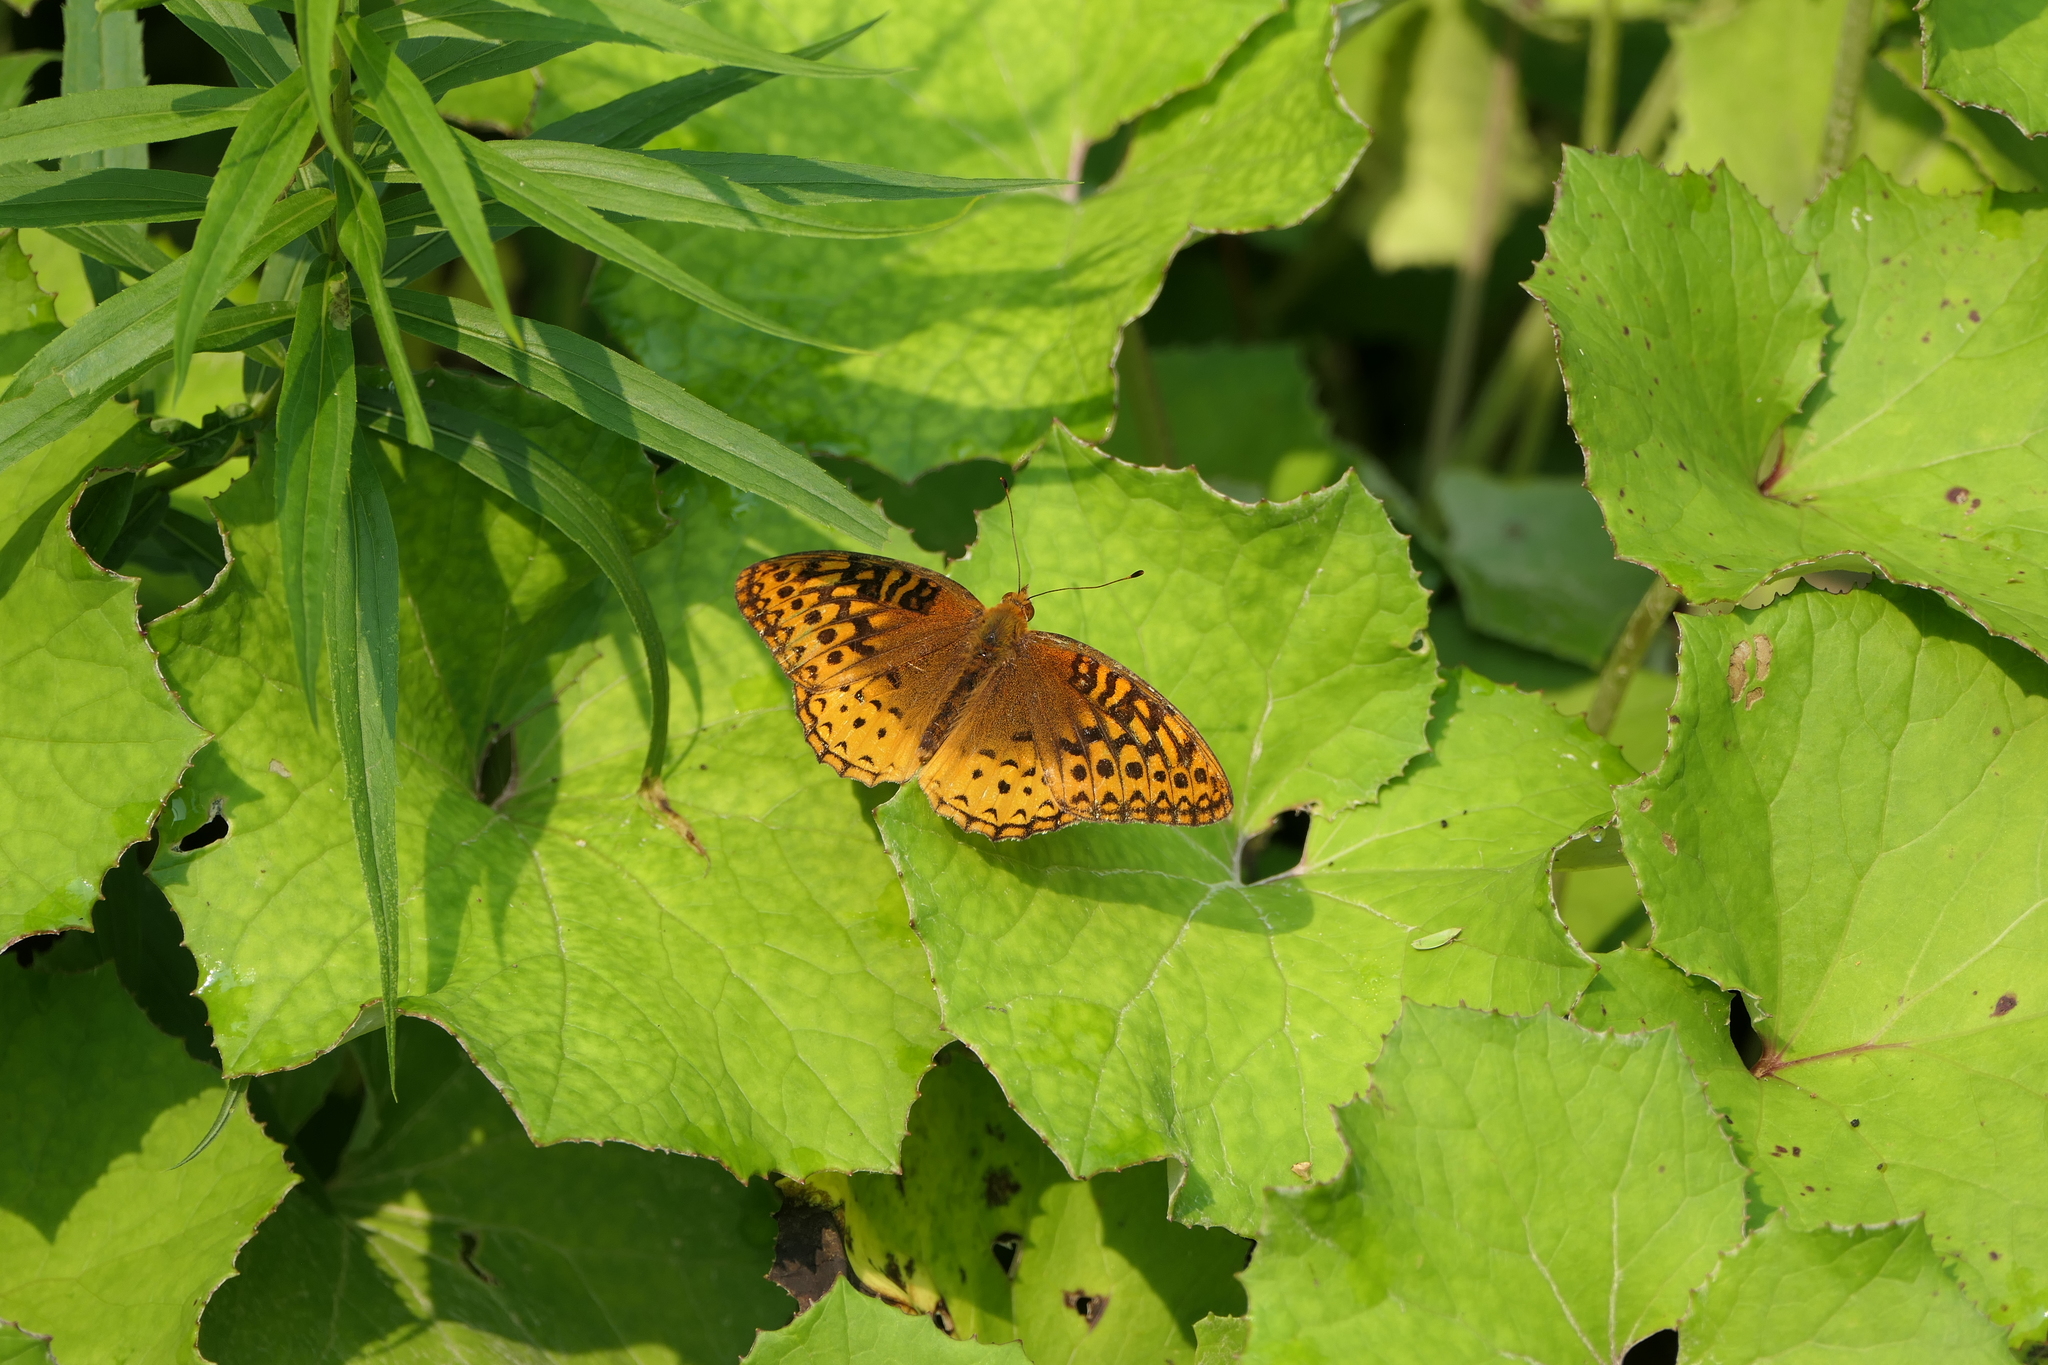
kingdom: Animalia
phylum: Arthropoda
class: Insecta
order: Lepidoptera
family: Nymphalidae
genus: Speyeria
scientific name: Speyeria cybele
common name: Great spangled fritillary
